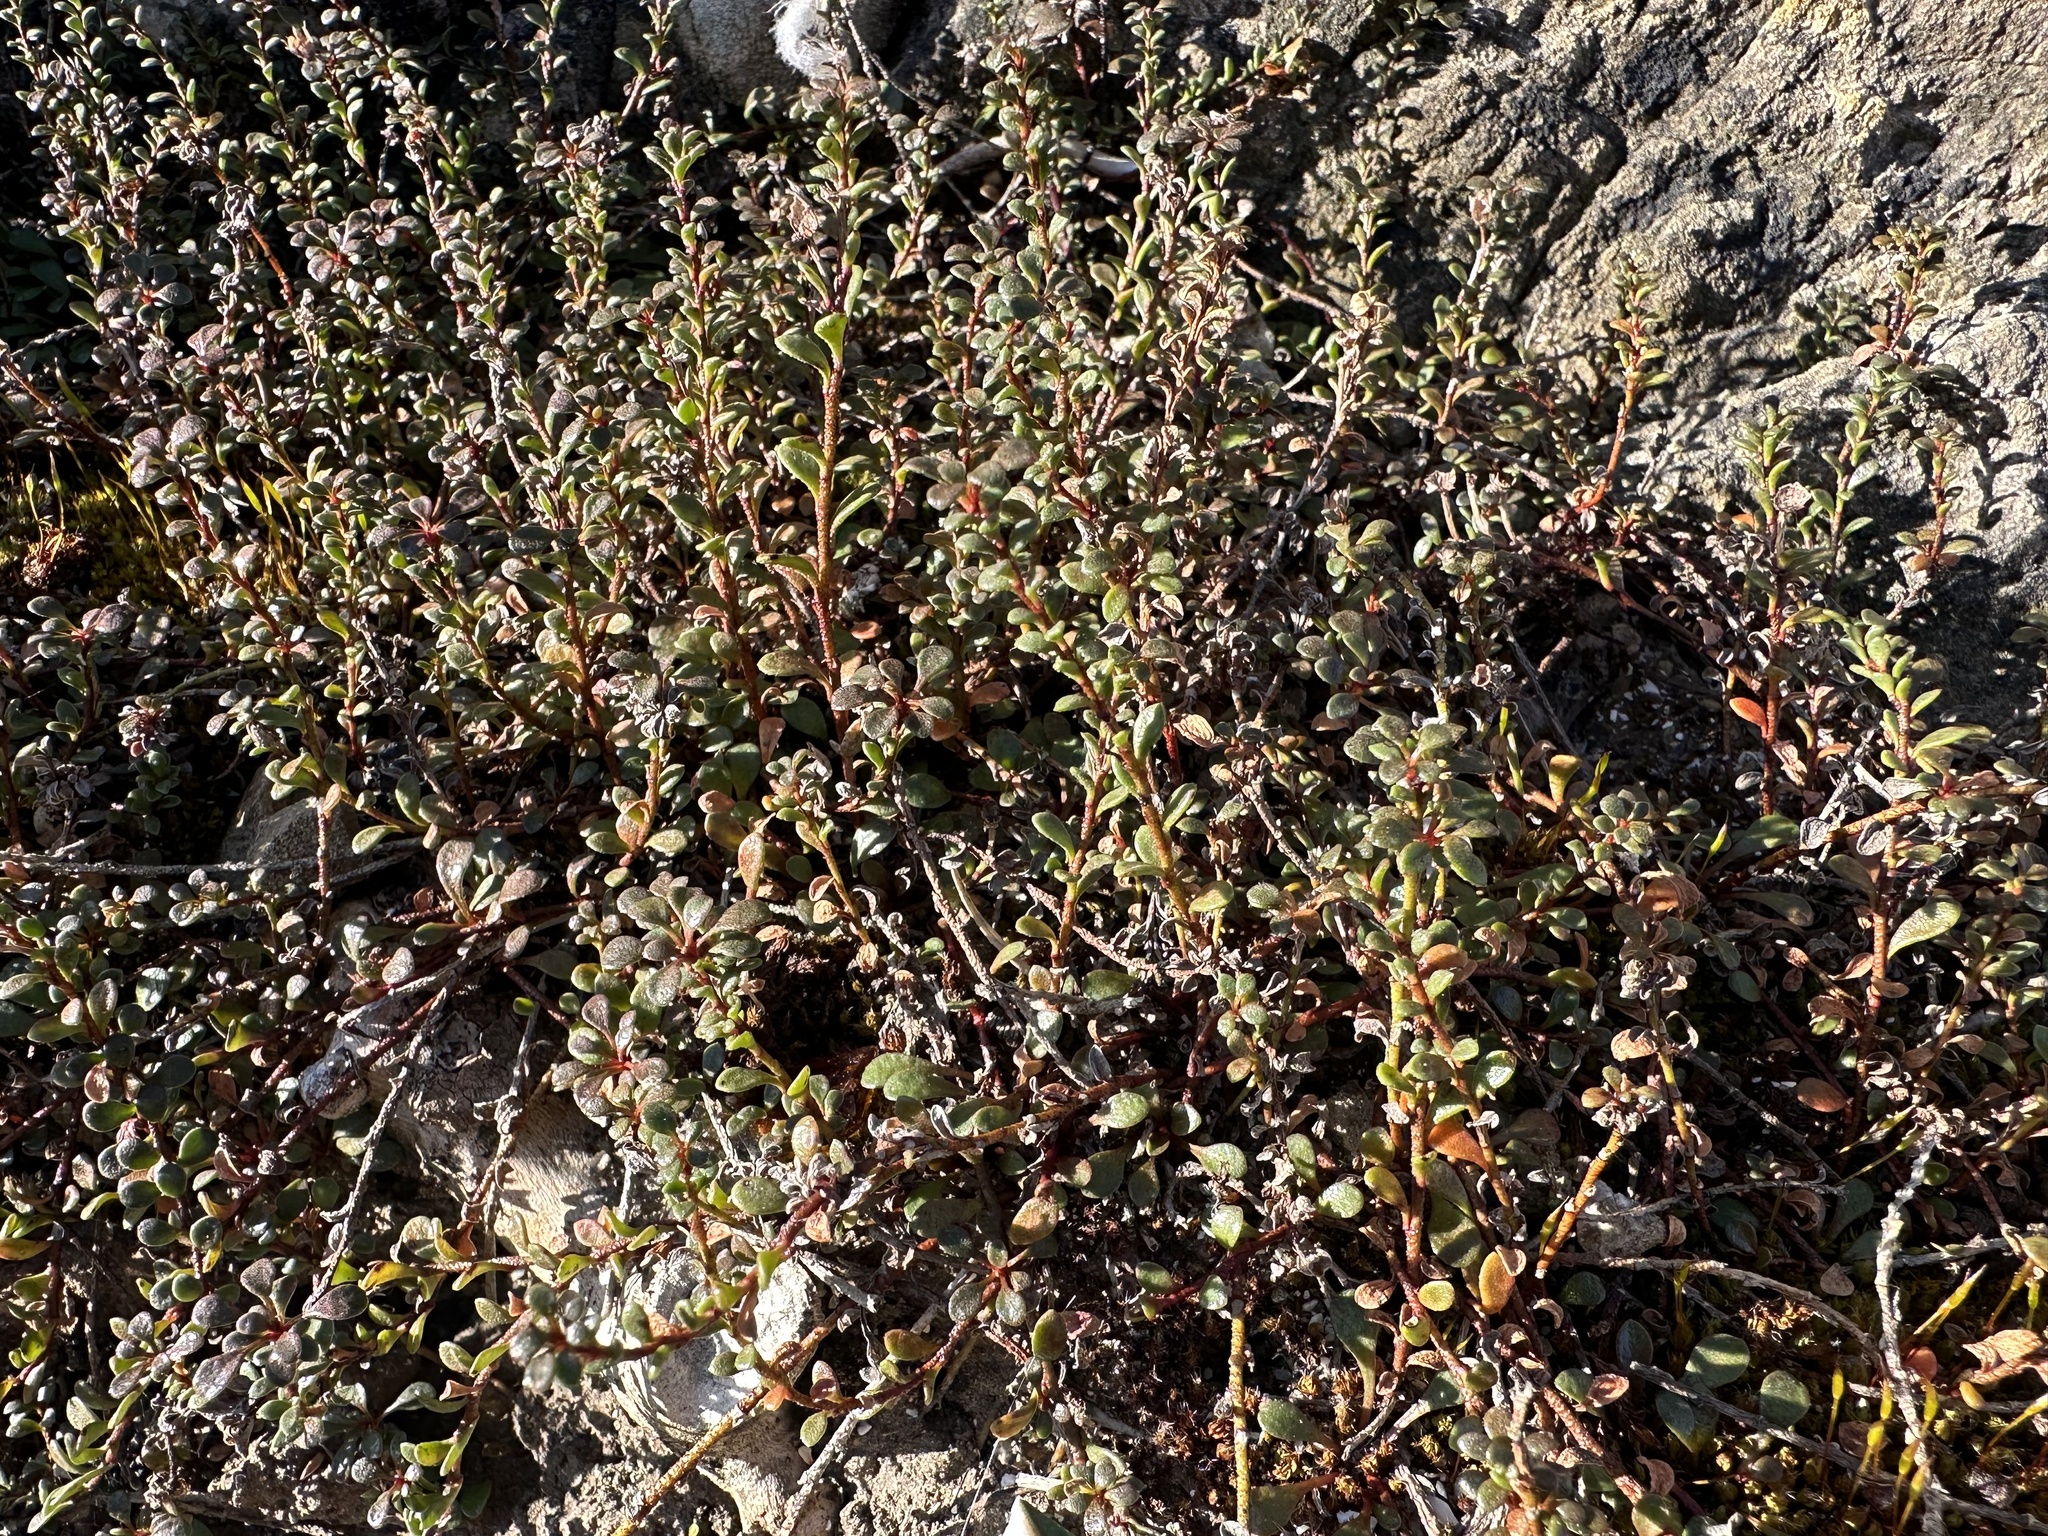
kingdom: Plantae
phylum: Tracheophyta
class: Magnoliopsida
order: Ericales
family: Primulaceae
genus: Samolus
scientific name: Samolus repens
